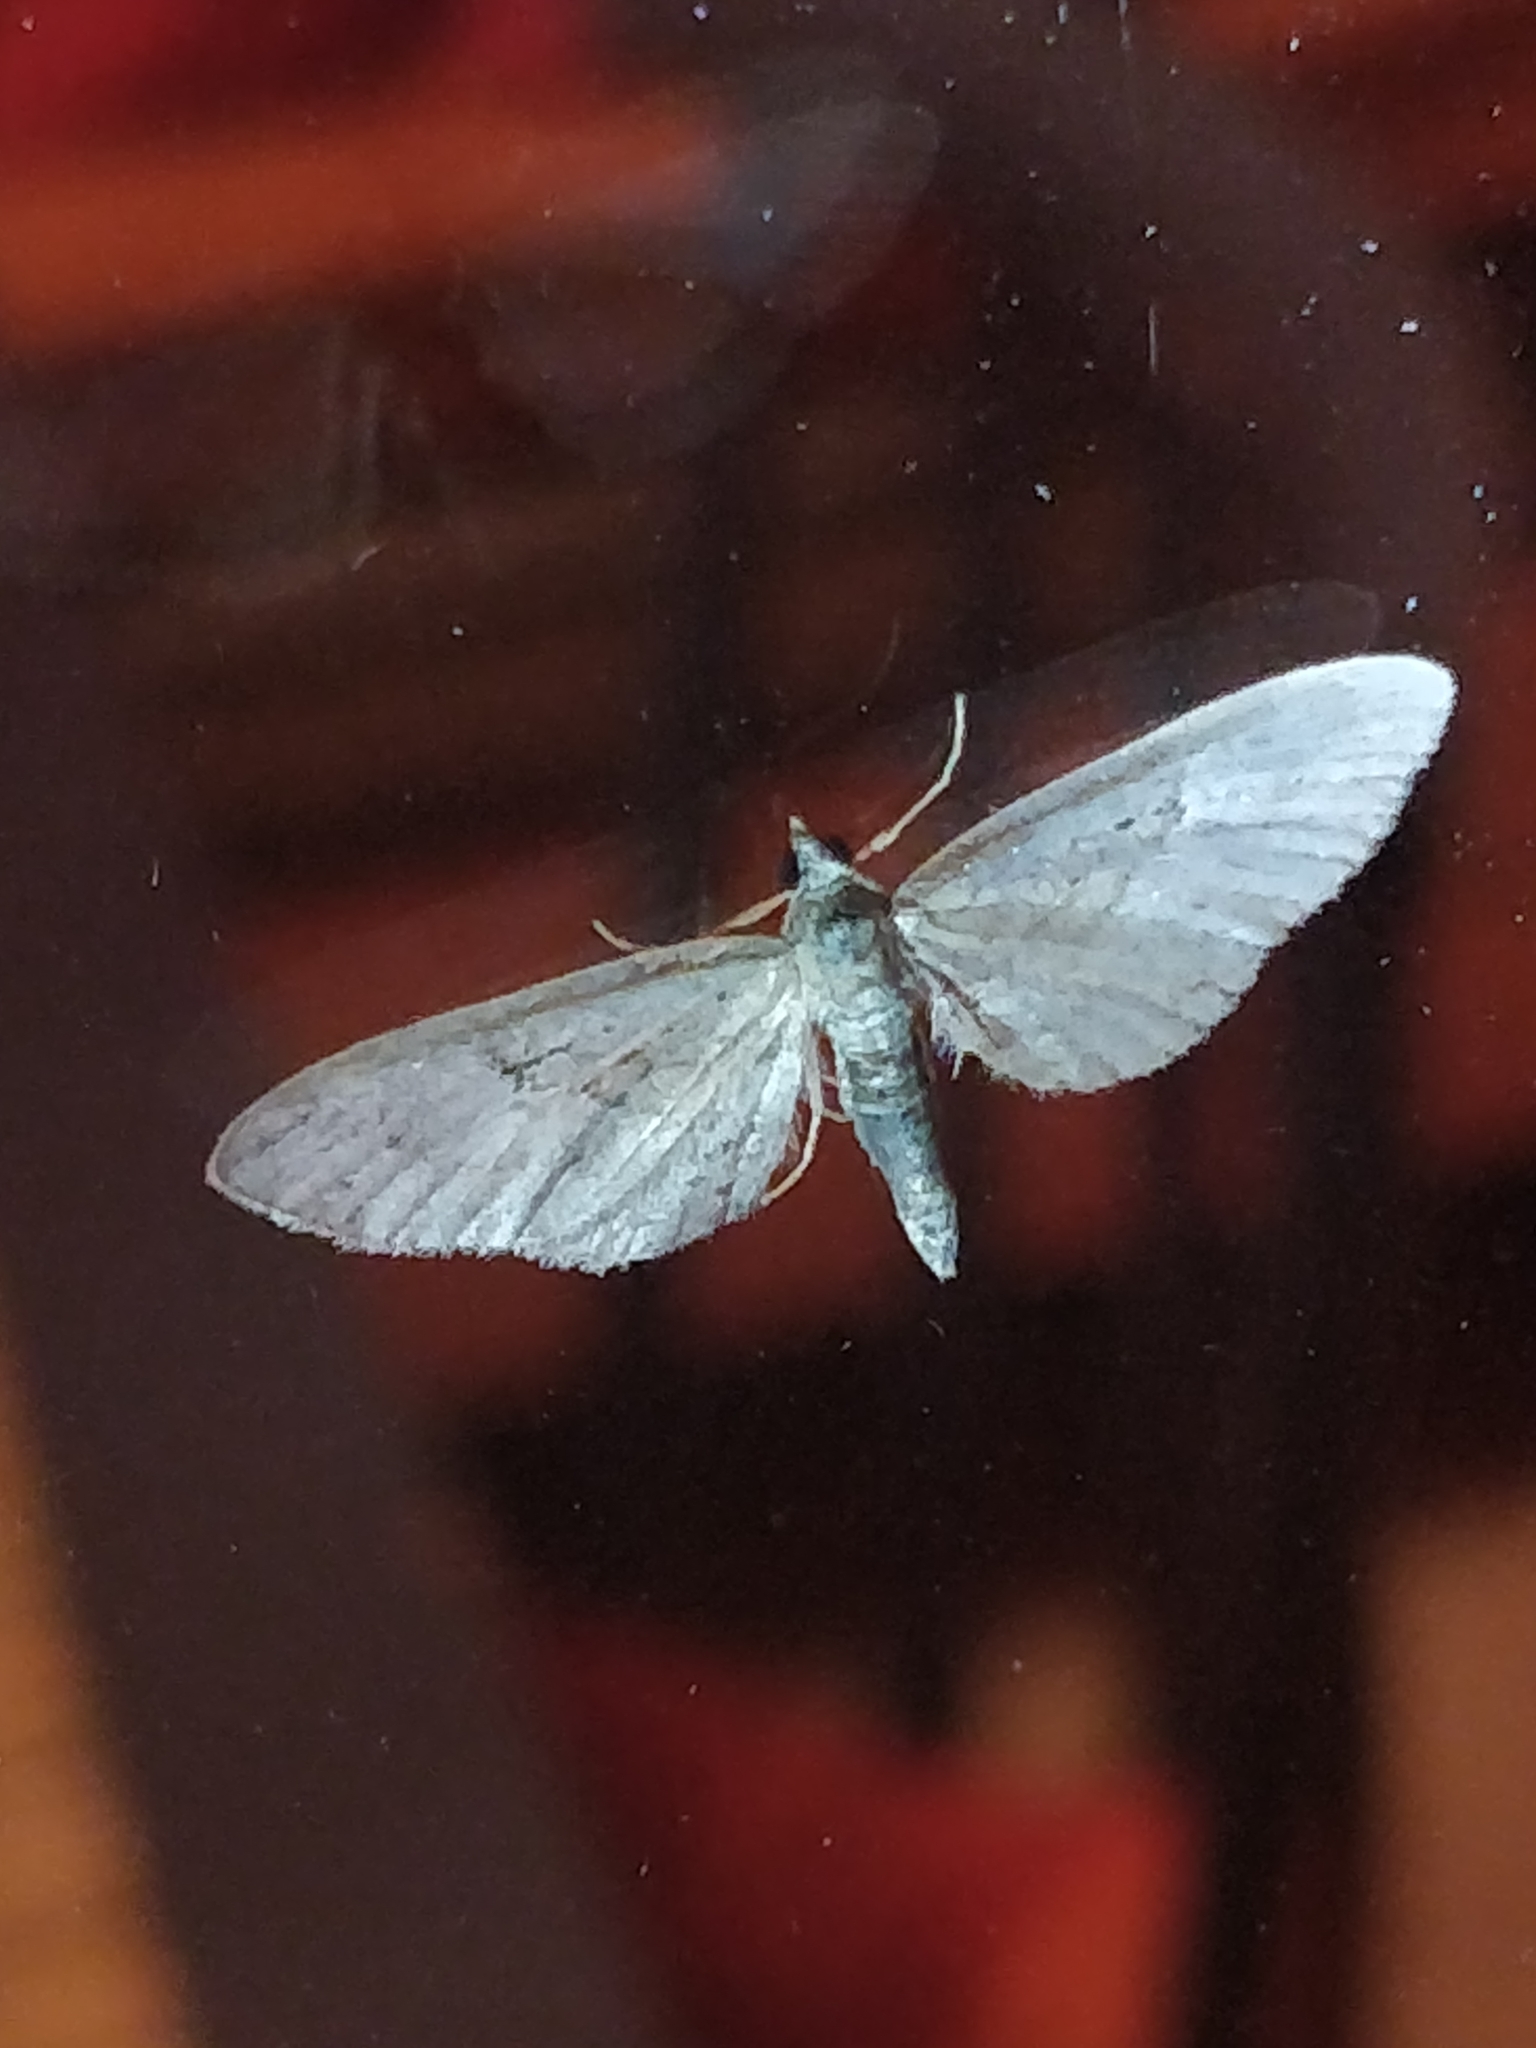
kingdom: Animalia
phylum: Arthropoda
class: Insecta
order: Lepidoptera
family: Geometridae
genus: Eupithecia
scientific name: Eupithecia pusillata
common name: Juniper pug
